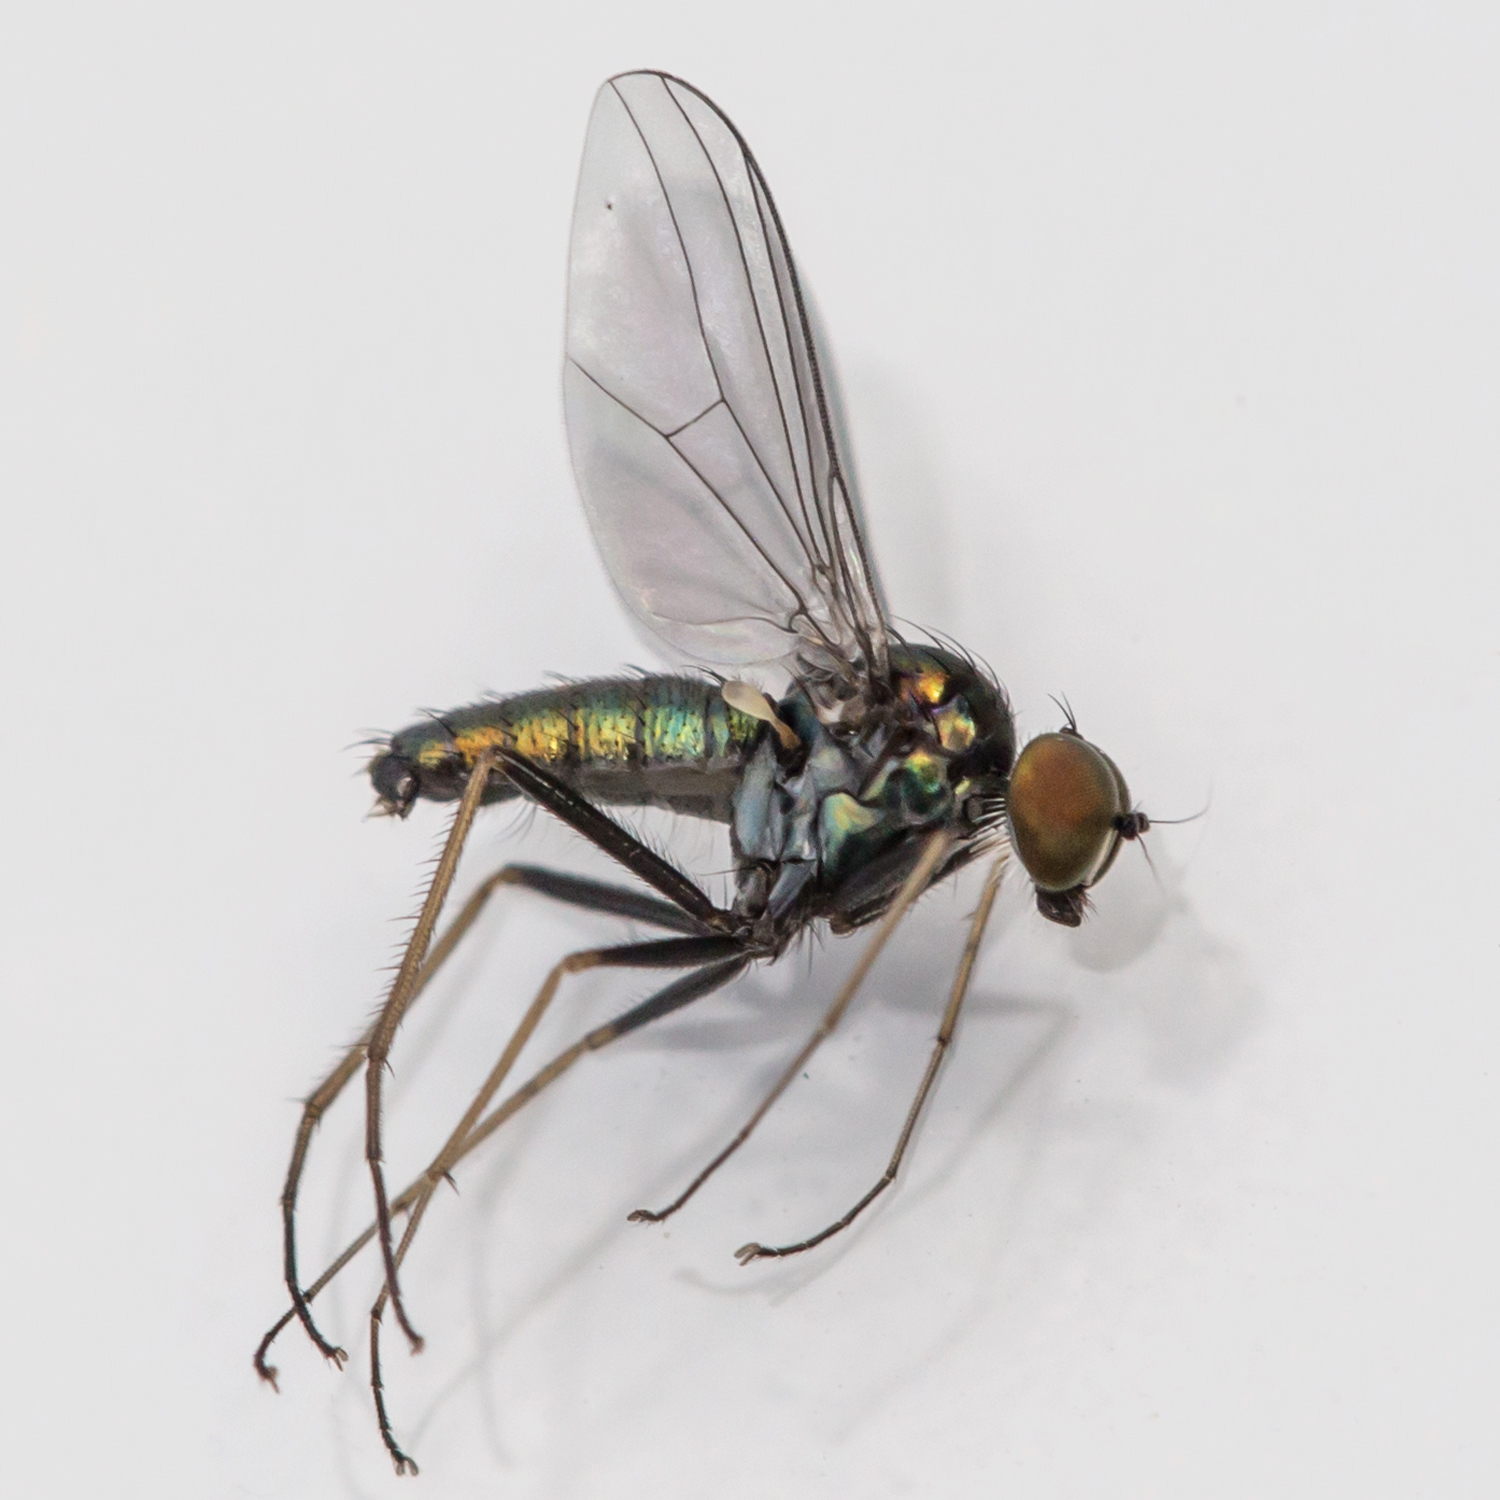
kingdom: Animalia
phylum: Arthropoda
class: Insecta
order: Diptera
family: Dolichopodidae
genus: Chrysotus
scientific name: Chrysotus spectabilis
